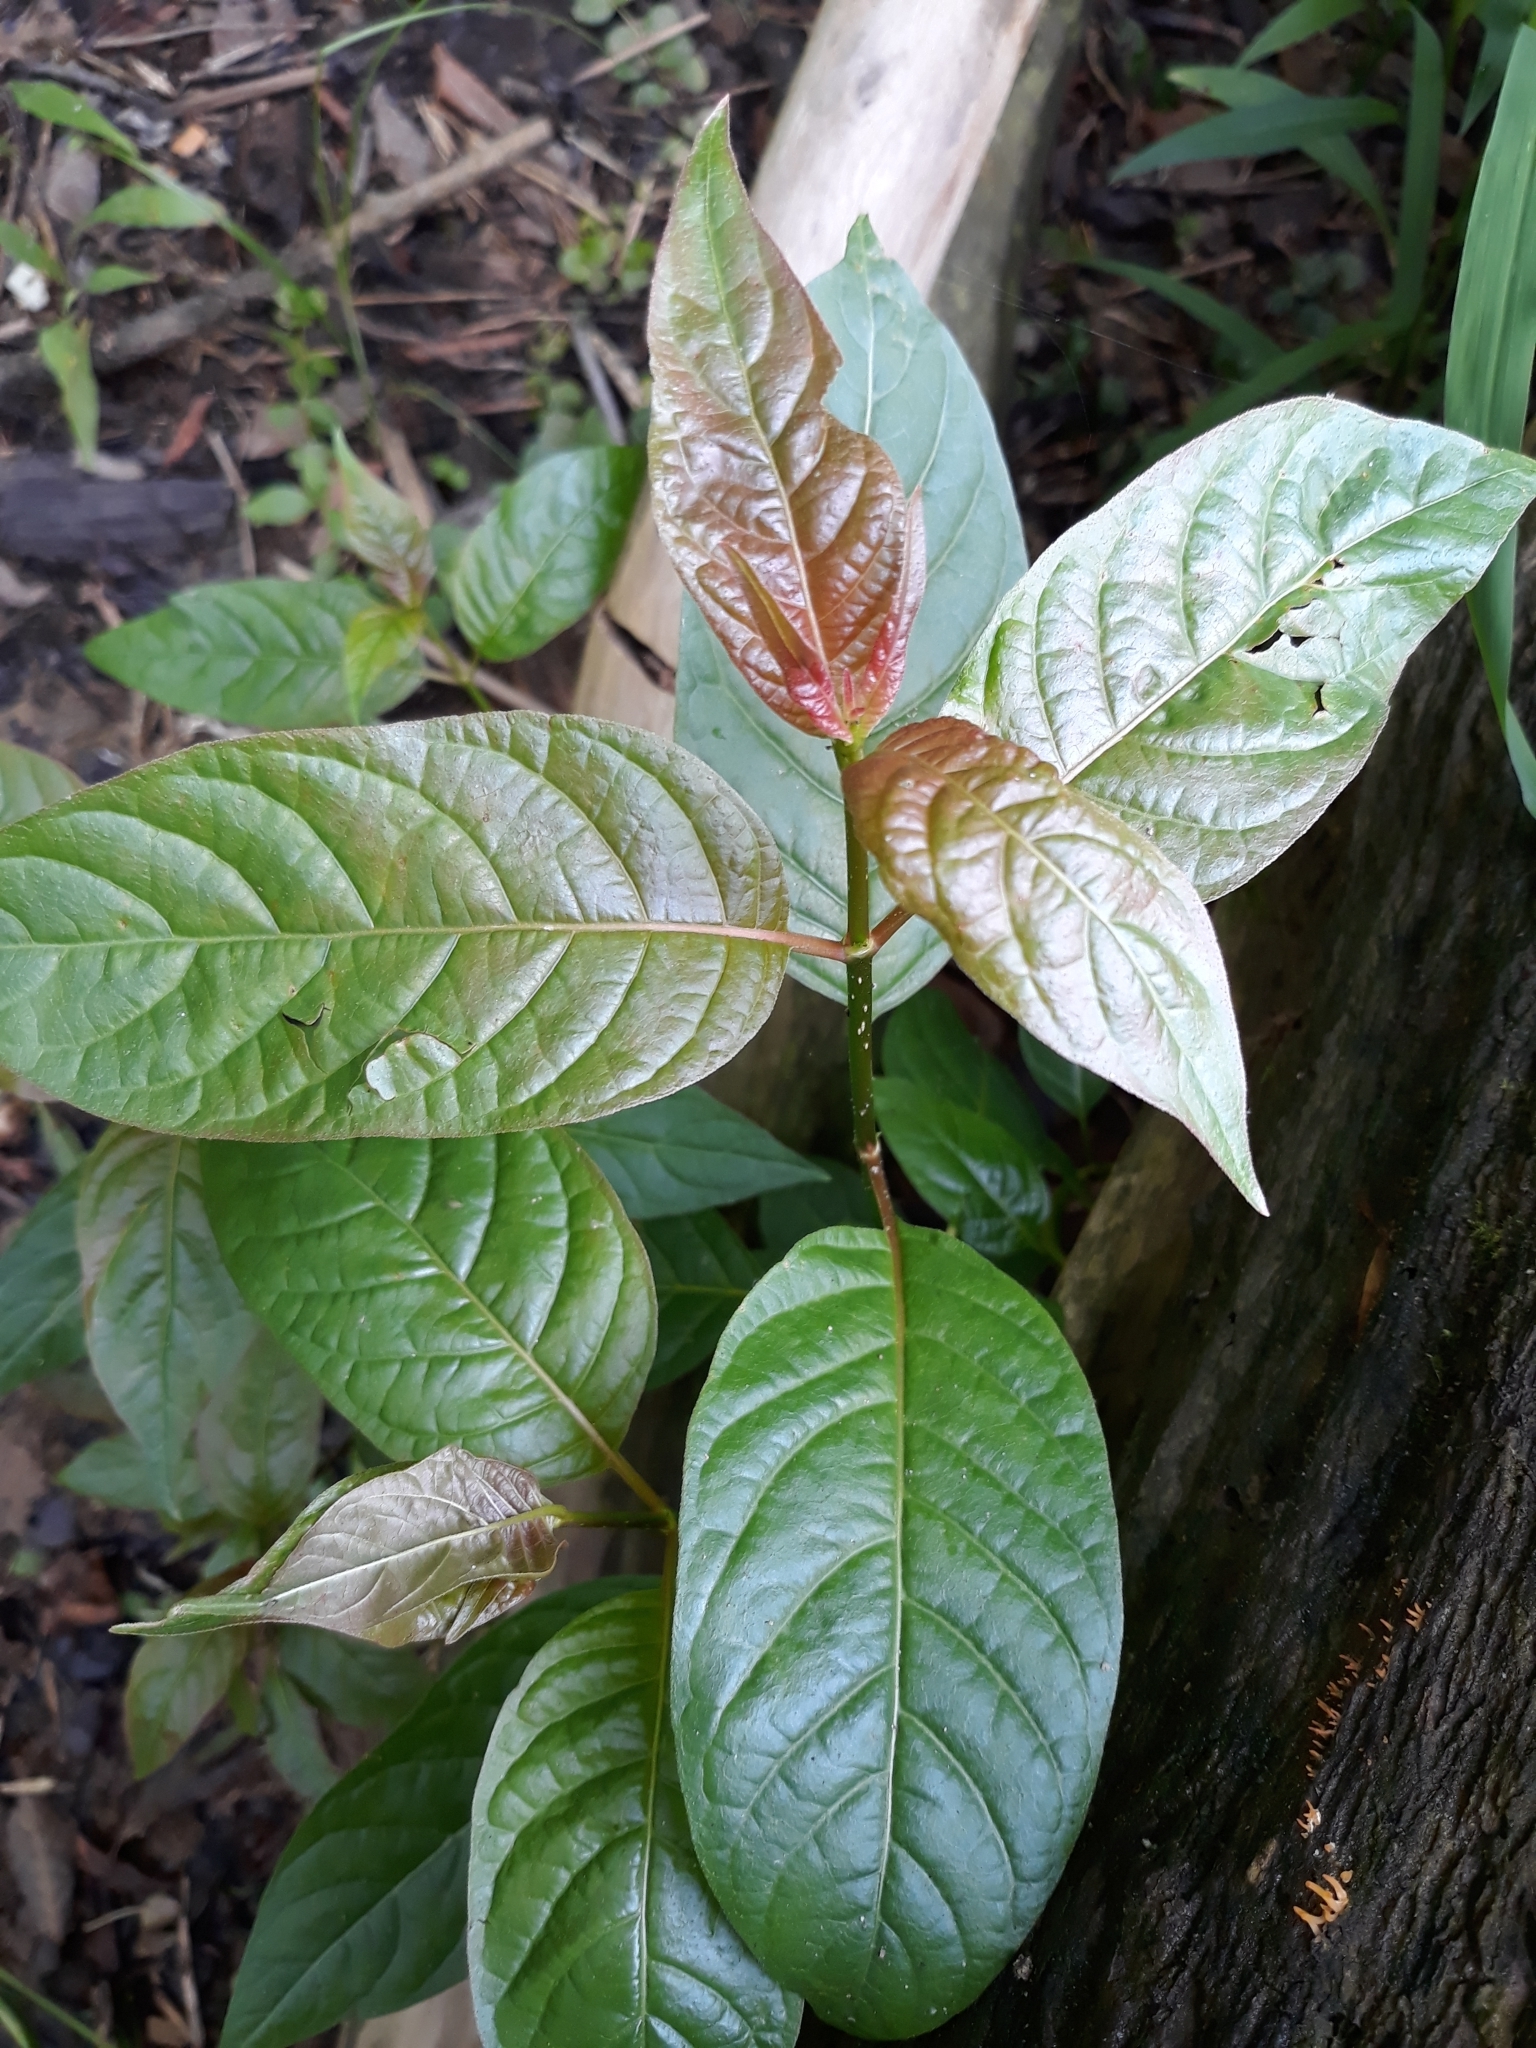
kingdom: Plantae
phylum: Tracheophyta
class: Magnoliopsida
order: Gentianales
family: Rubiaceae
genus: Cephalanthus
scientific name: Cephalanthus occidentalis
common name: Button-willow
